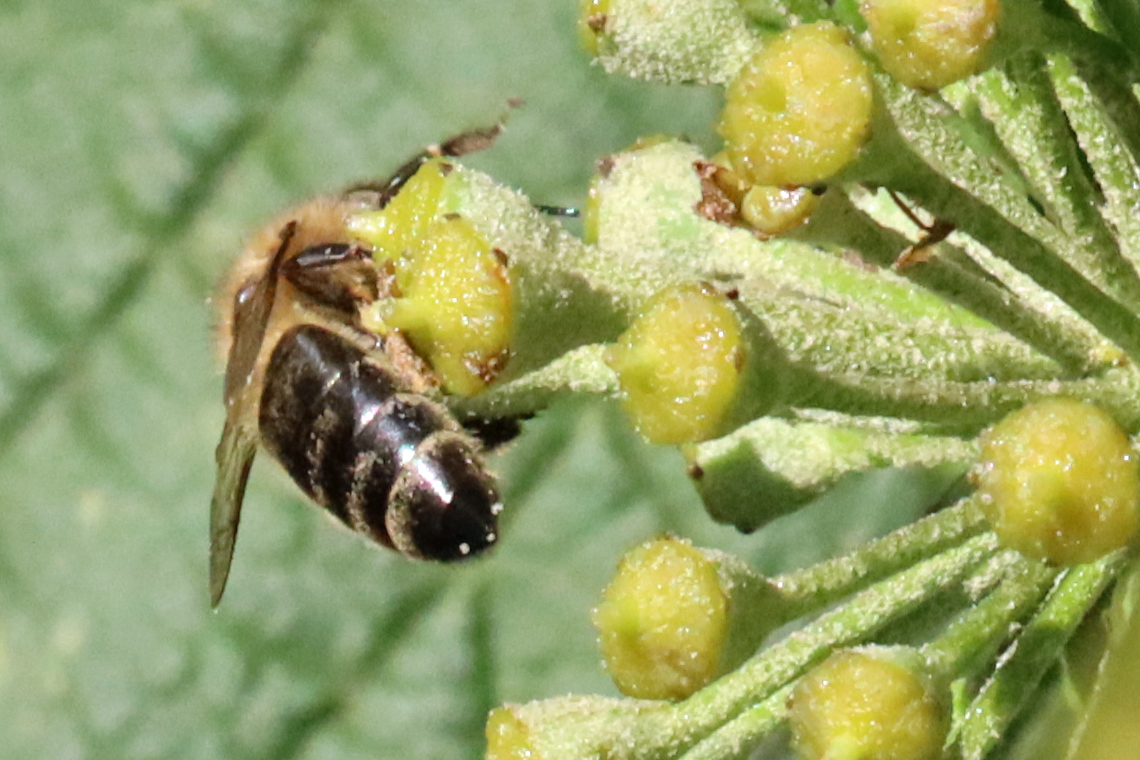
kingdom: Animalia
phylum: Arthropoda
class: Insecta
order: Hymenoptera
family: Apidae
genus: Apis
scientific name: Apis mellifera
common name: Honey bee
